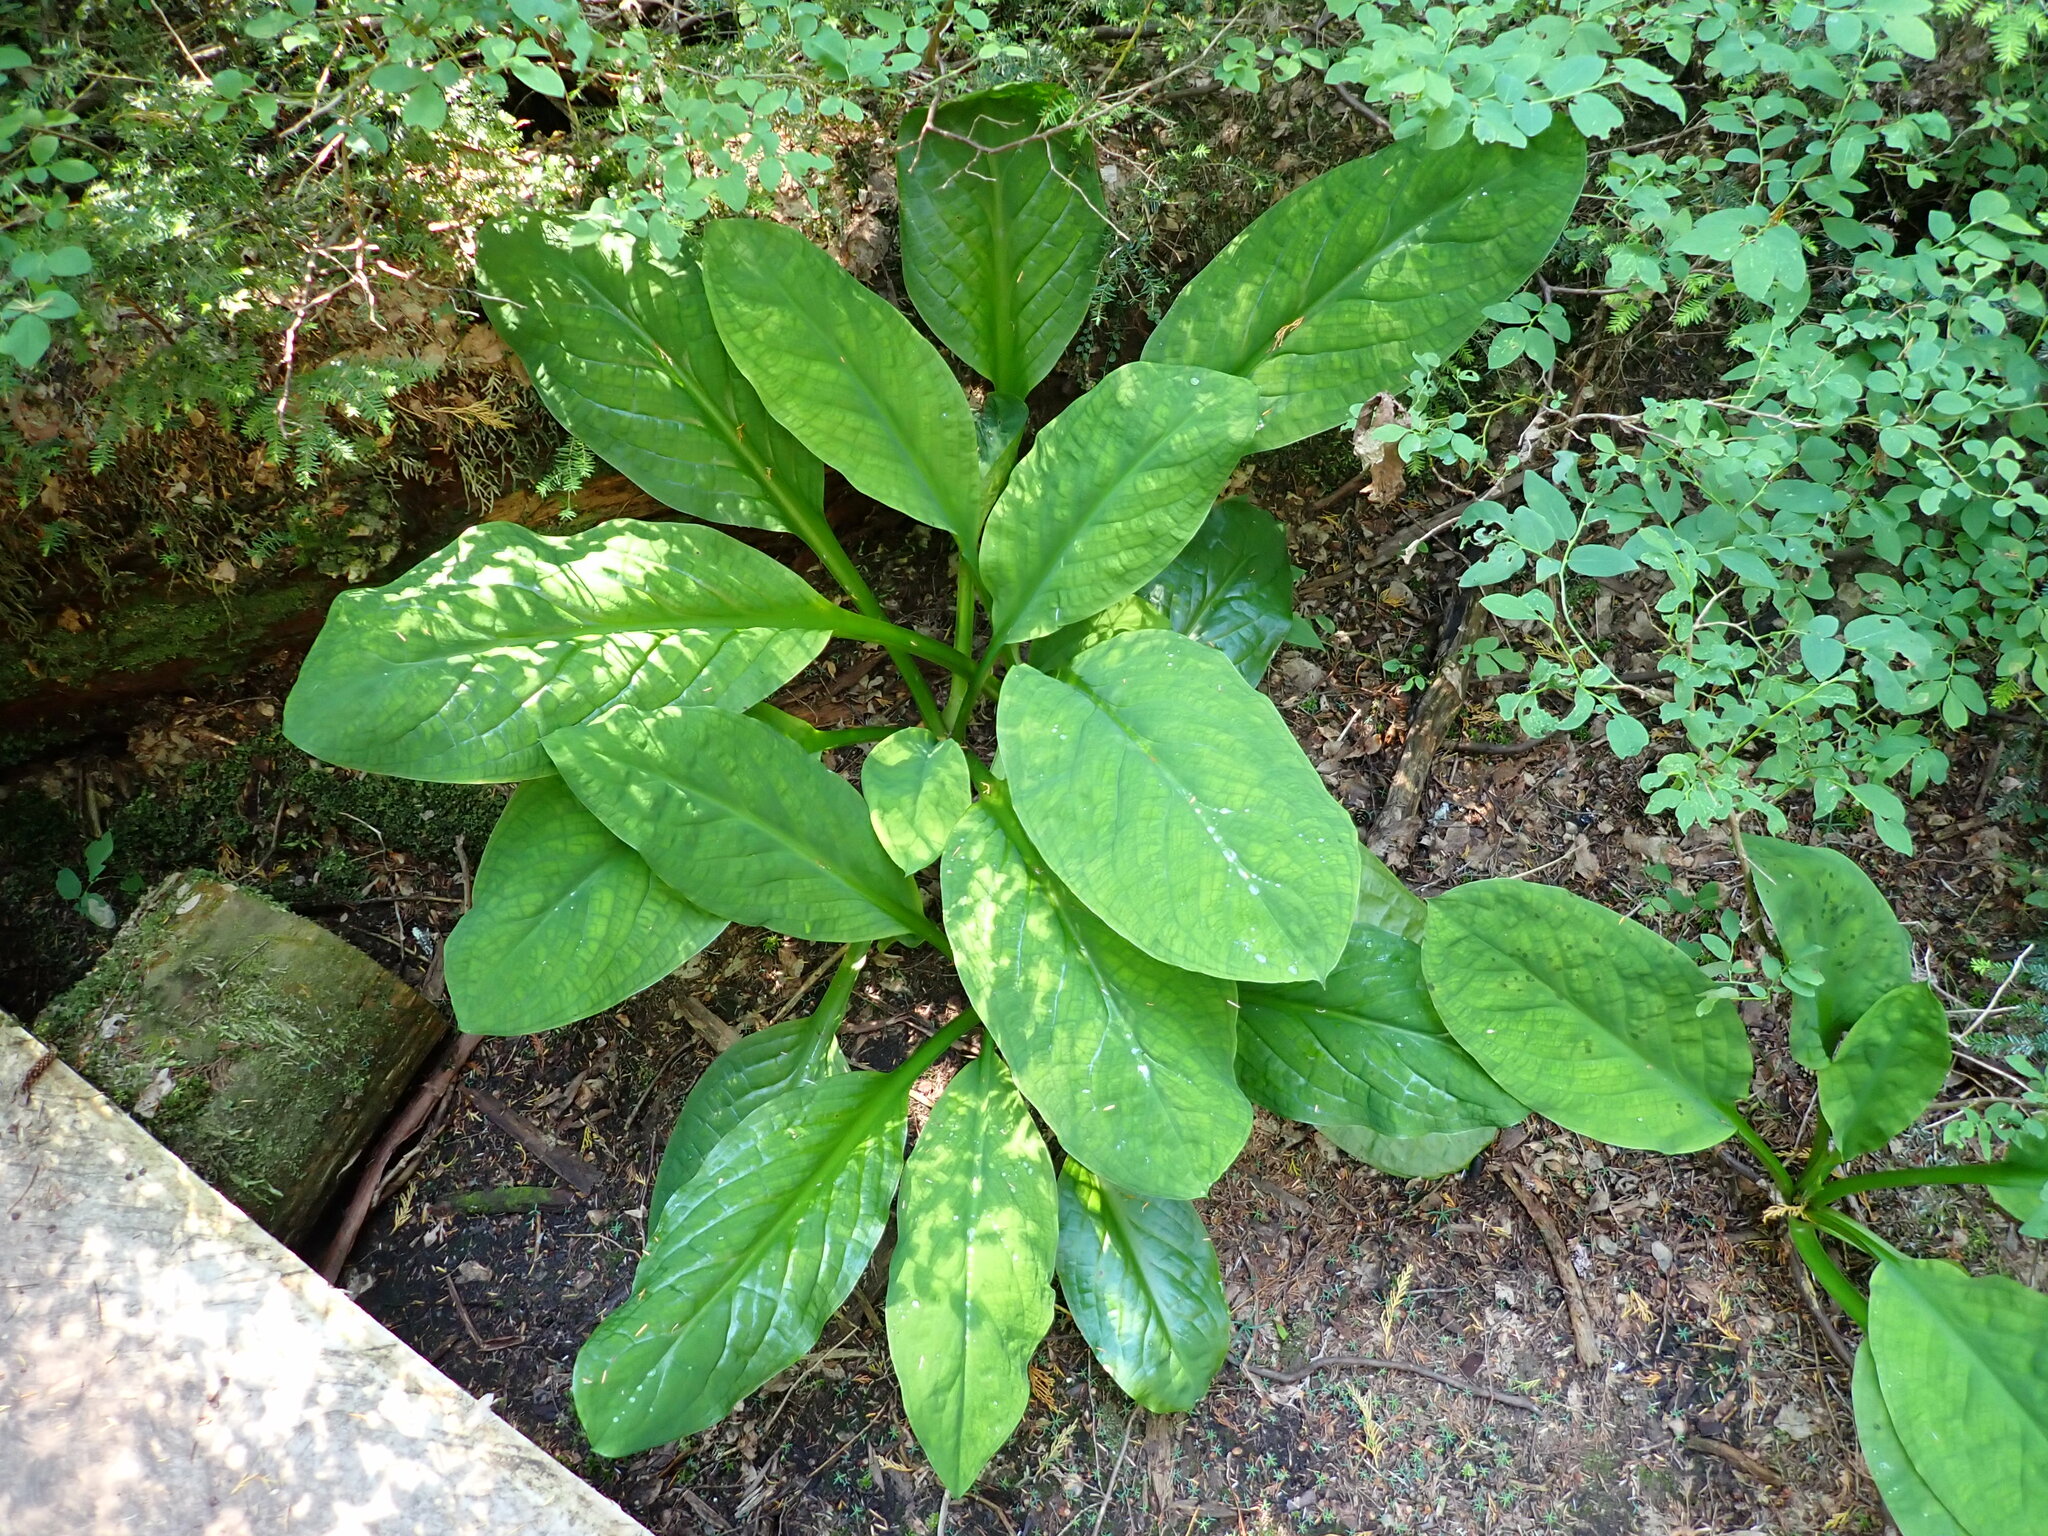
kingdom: Plantae
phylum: Tracheophyta
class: Liliopsida
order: Alismatales
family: Araceae
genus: Lysichiton
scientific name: Lysichiton americanus
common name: American skunk cabbage
